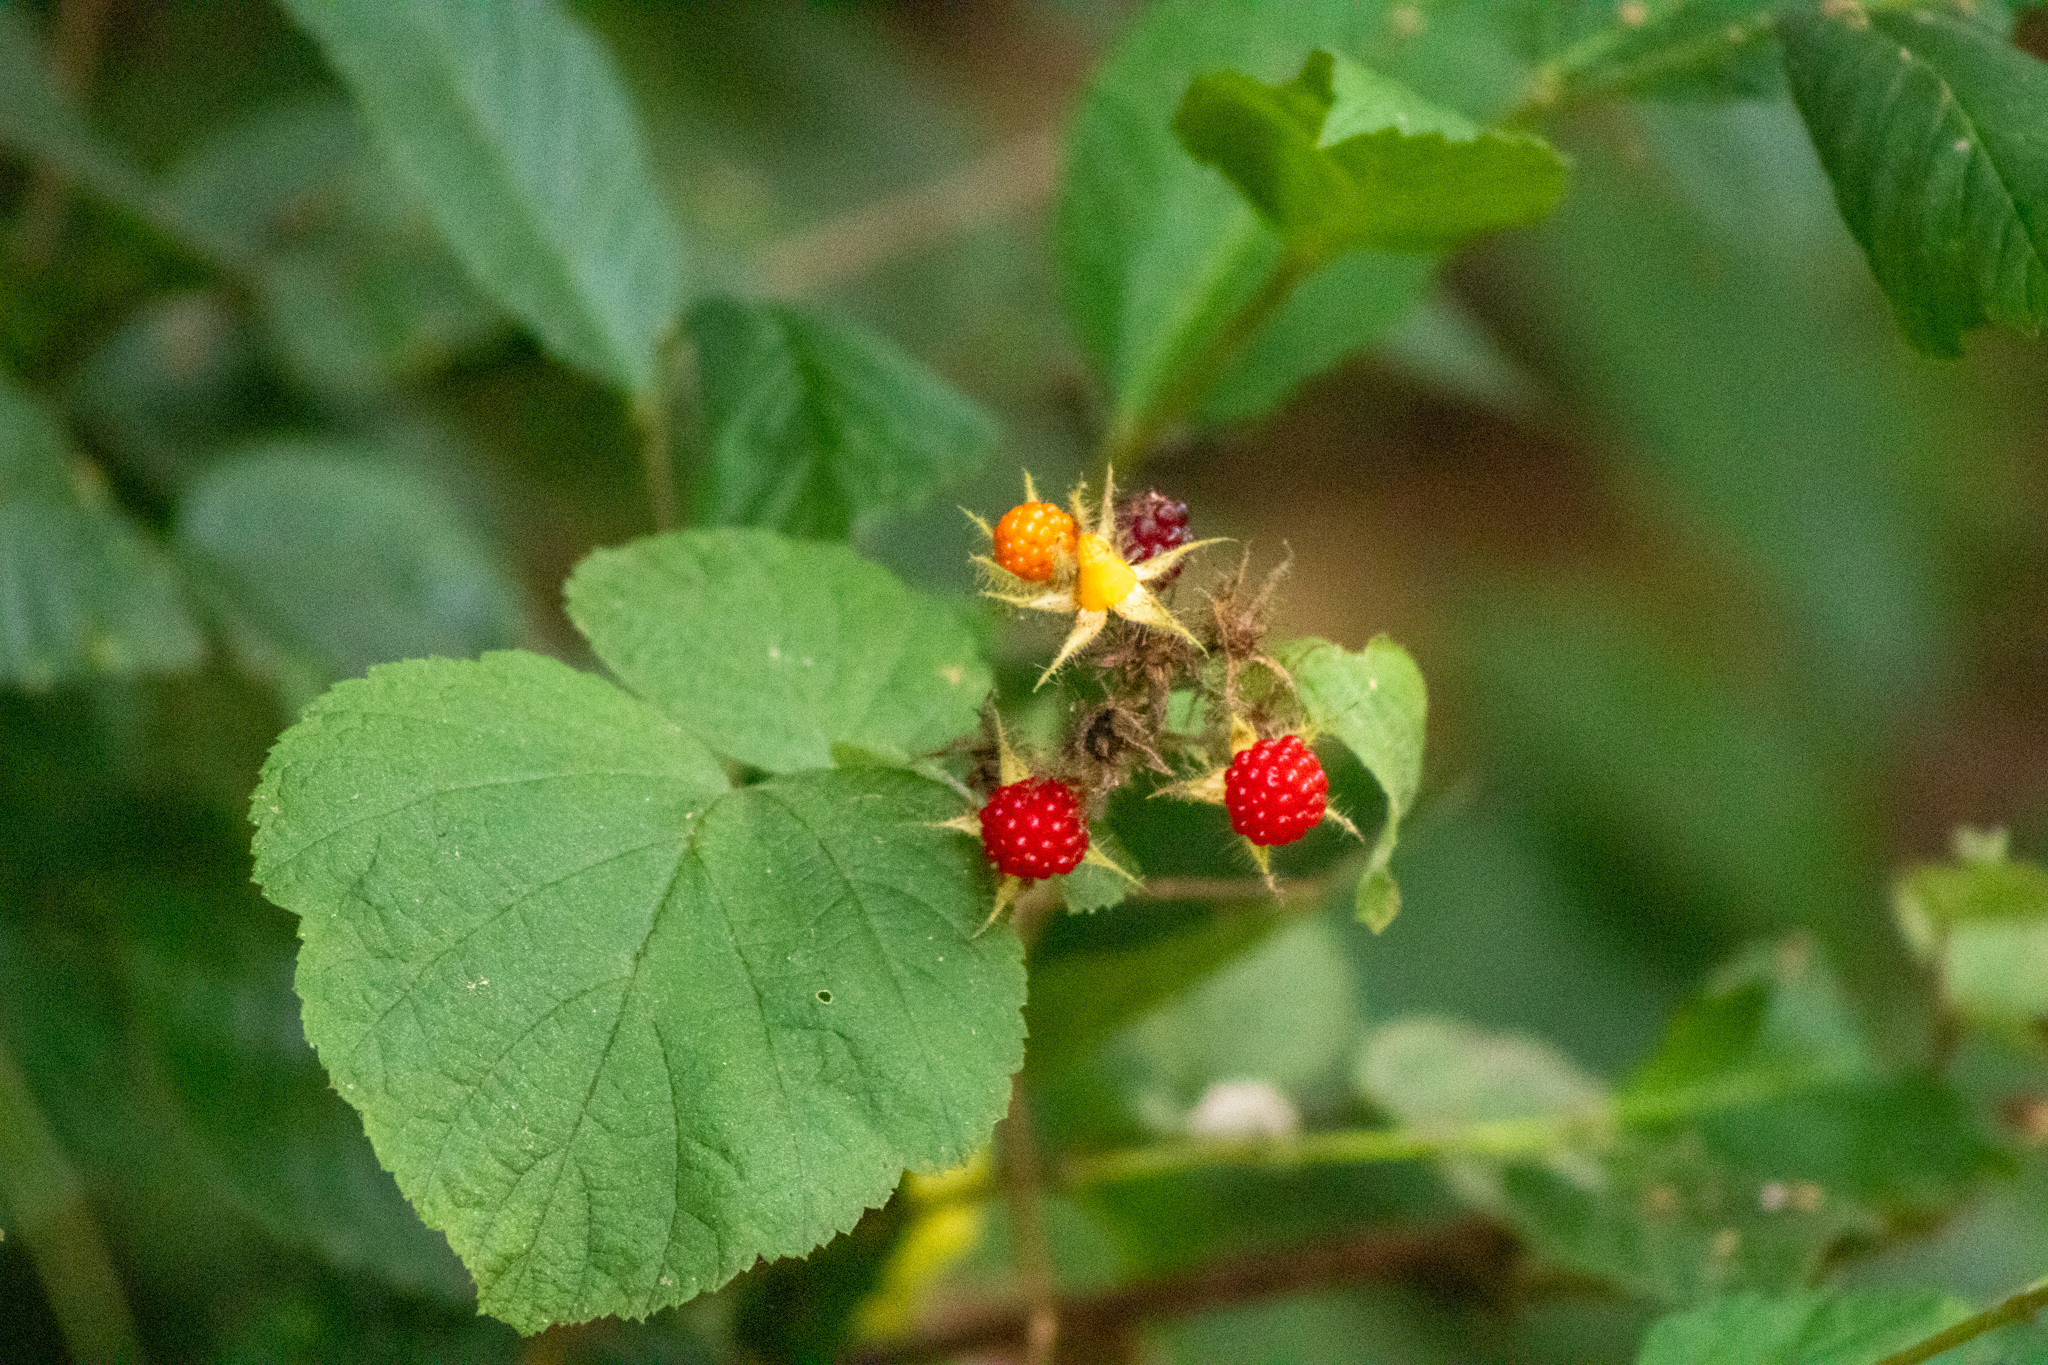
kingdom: Plantae
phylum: Tracheophyta
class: Magnoliopsida
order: Rosales
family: Rosaceae
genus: Rubus
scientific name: Rubus phoenicolasius
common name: Japanese wineberry
